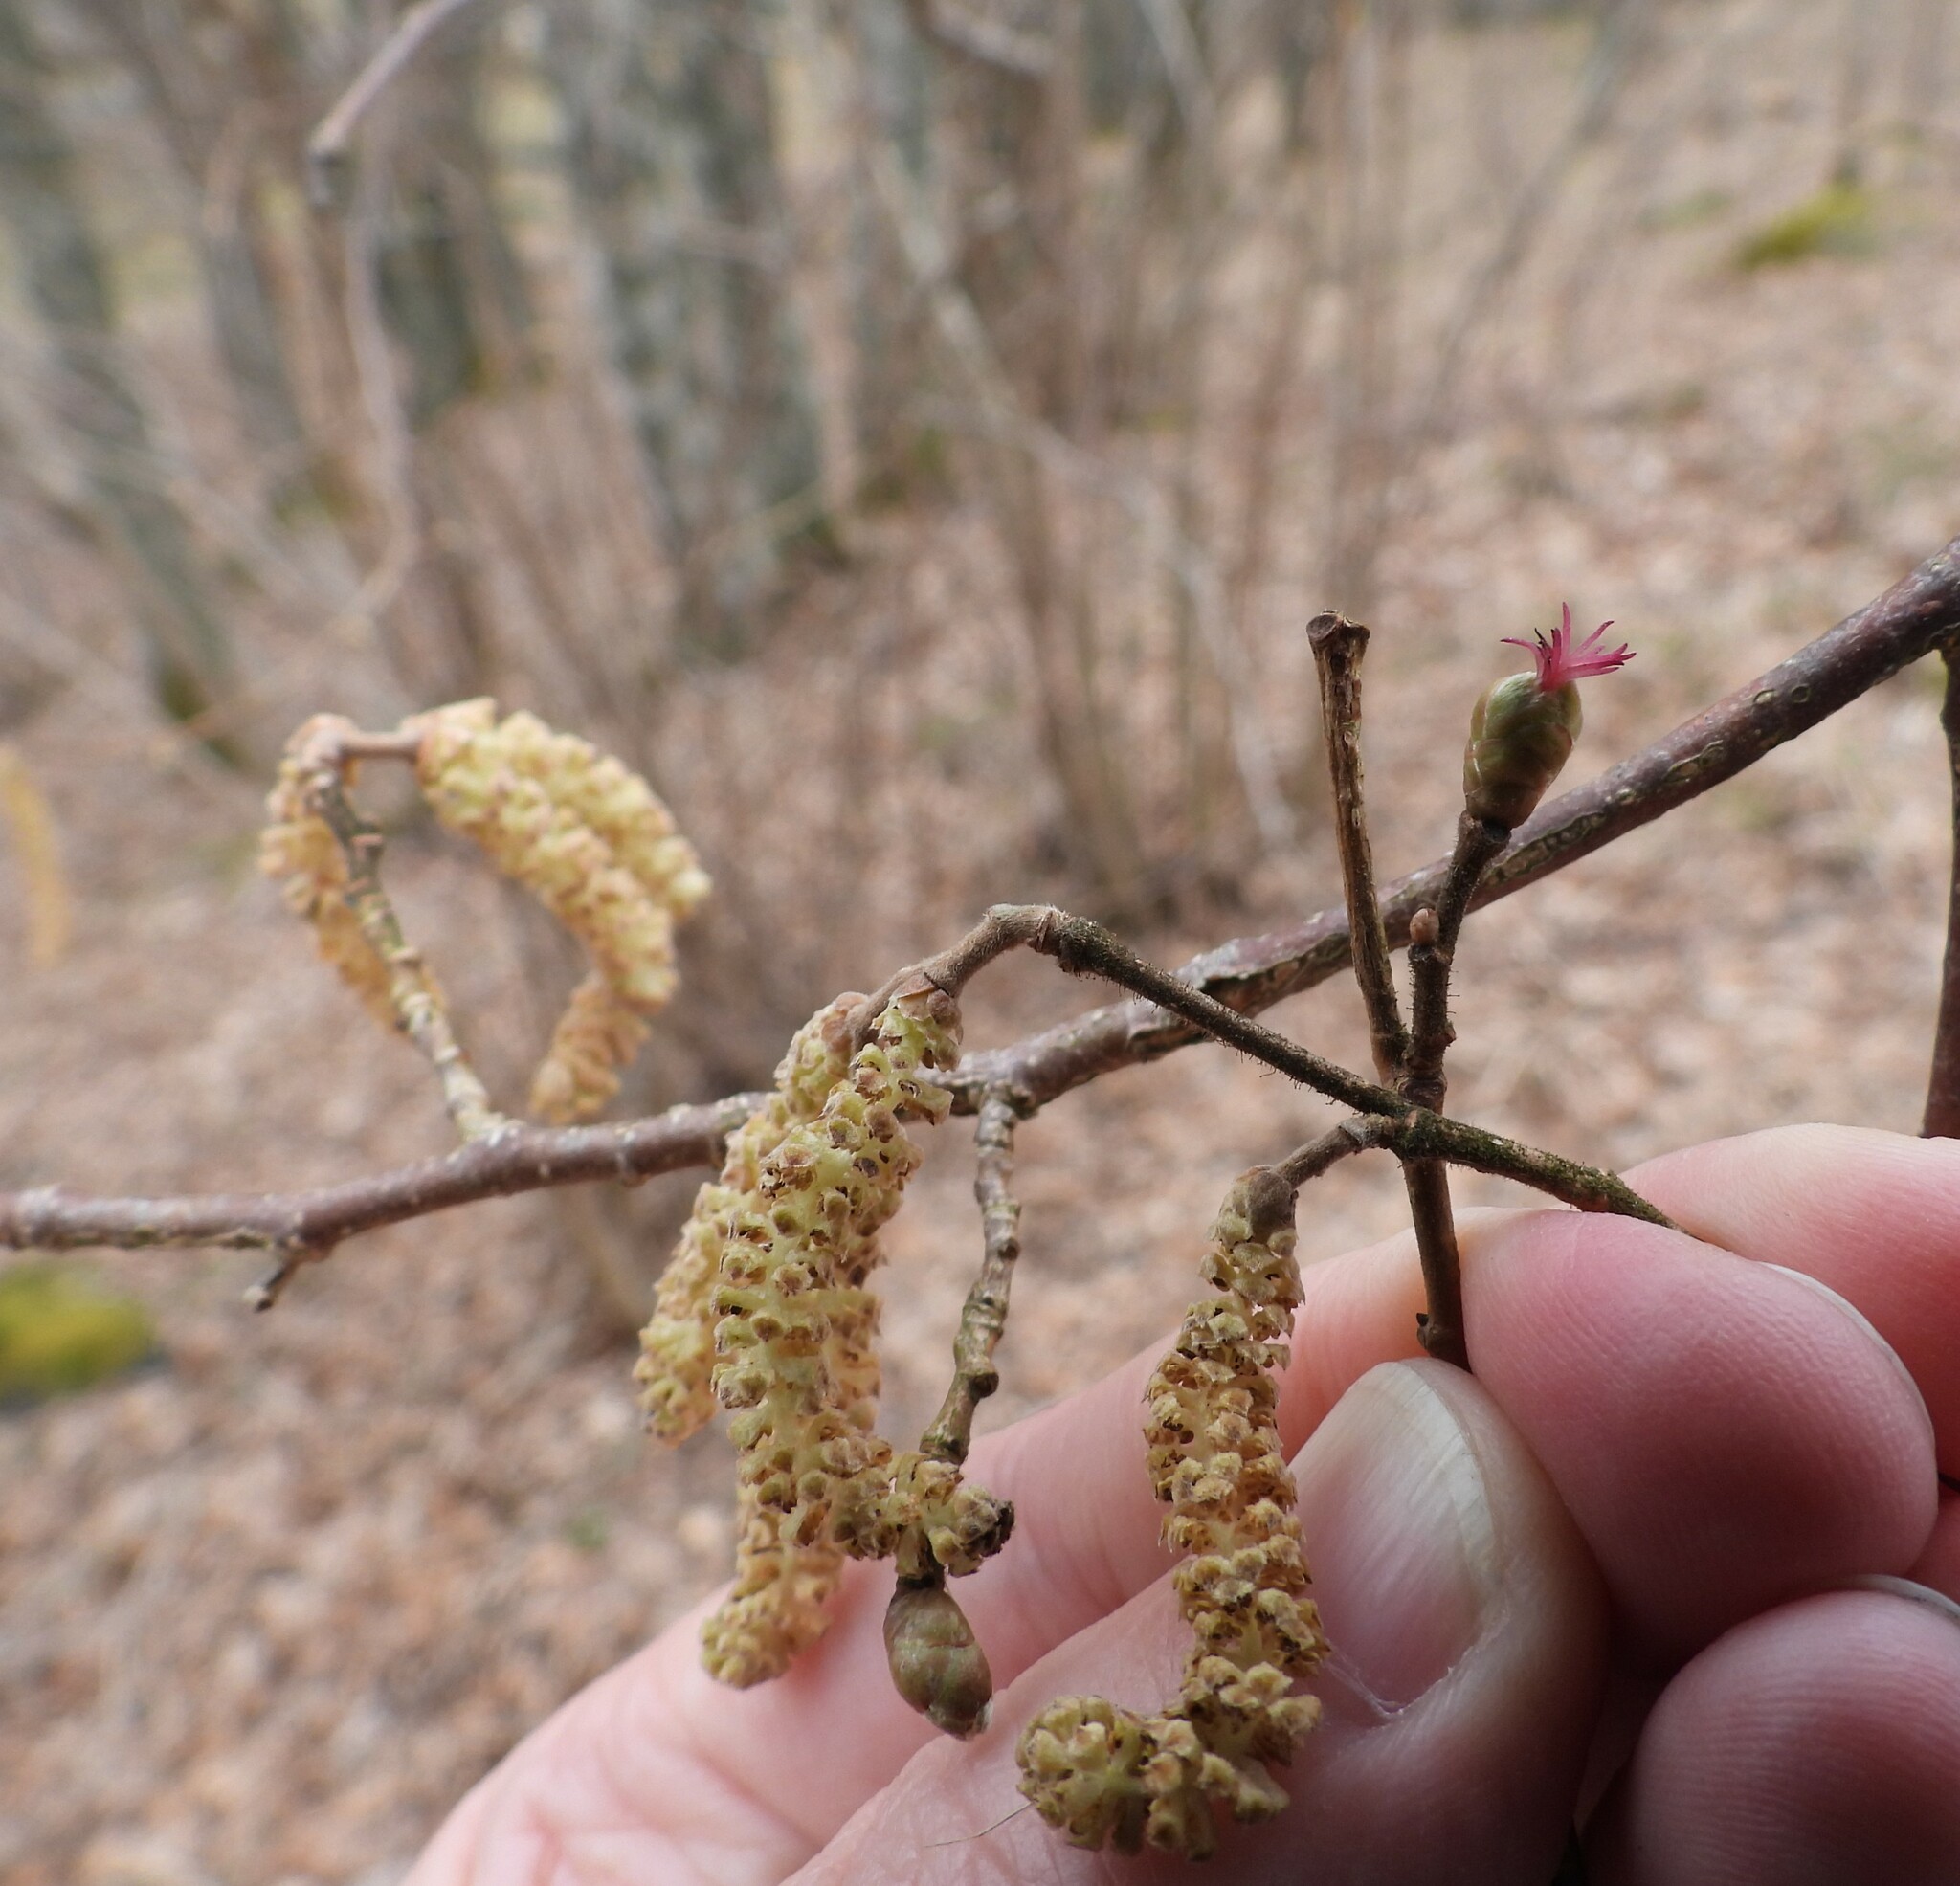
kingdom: Plantae
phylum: Tracheophyta
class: Magnoliopsida
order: Fagales
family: Betulaceae
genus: Corylus
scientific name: Corylus avellana
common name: European hazel
